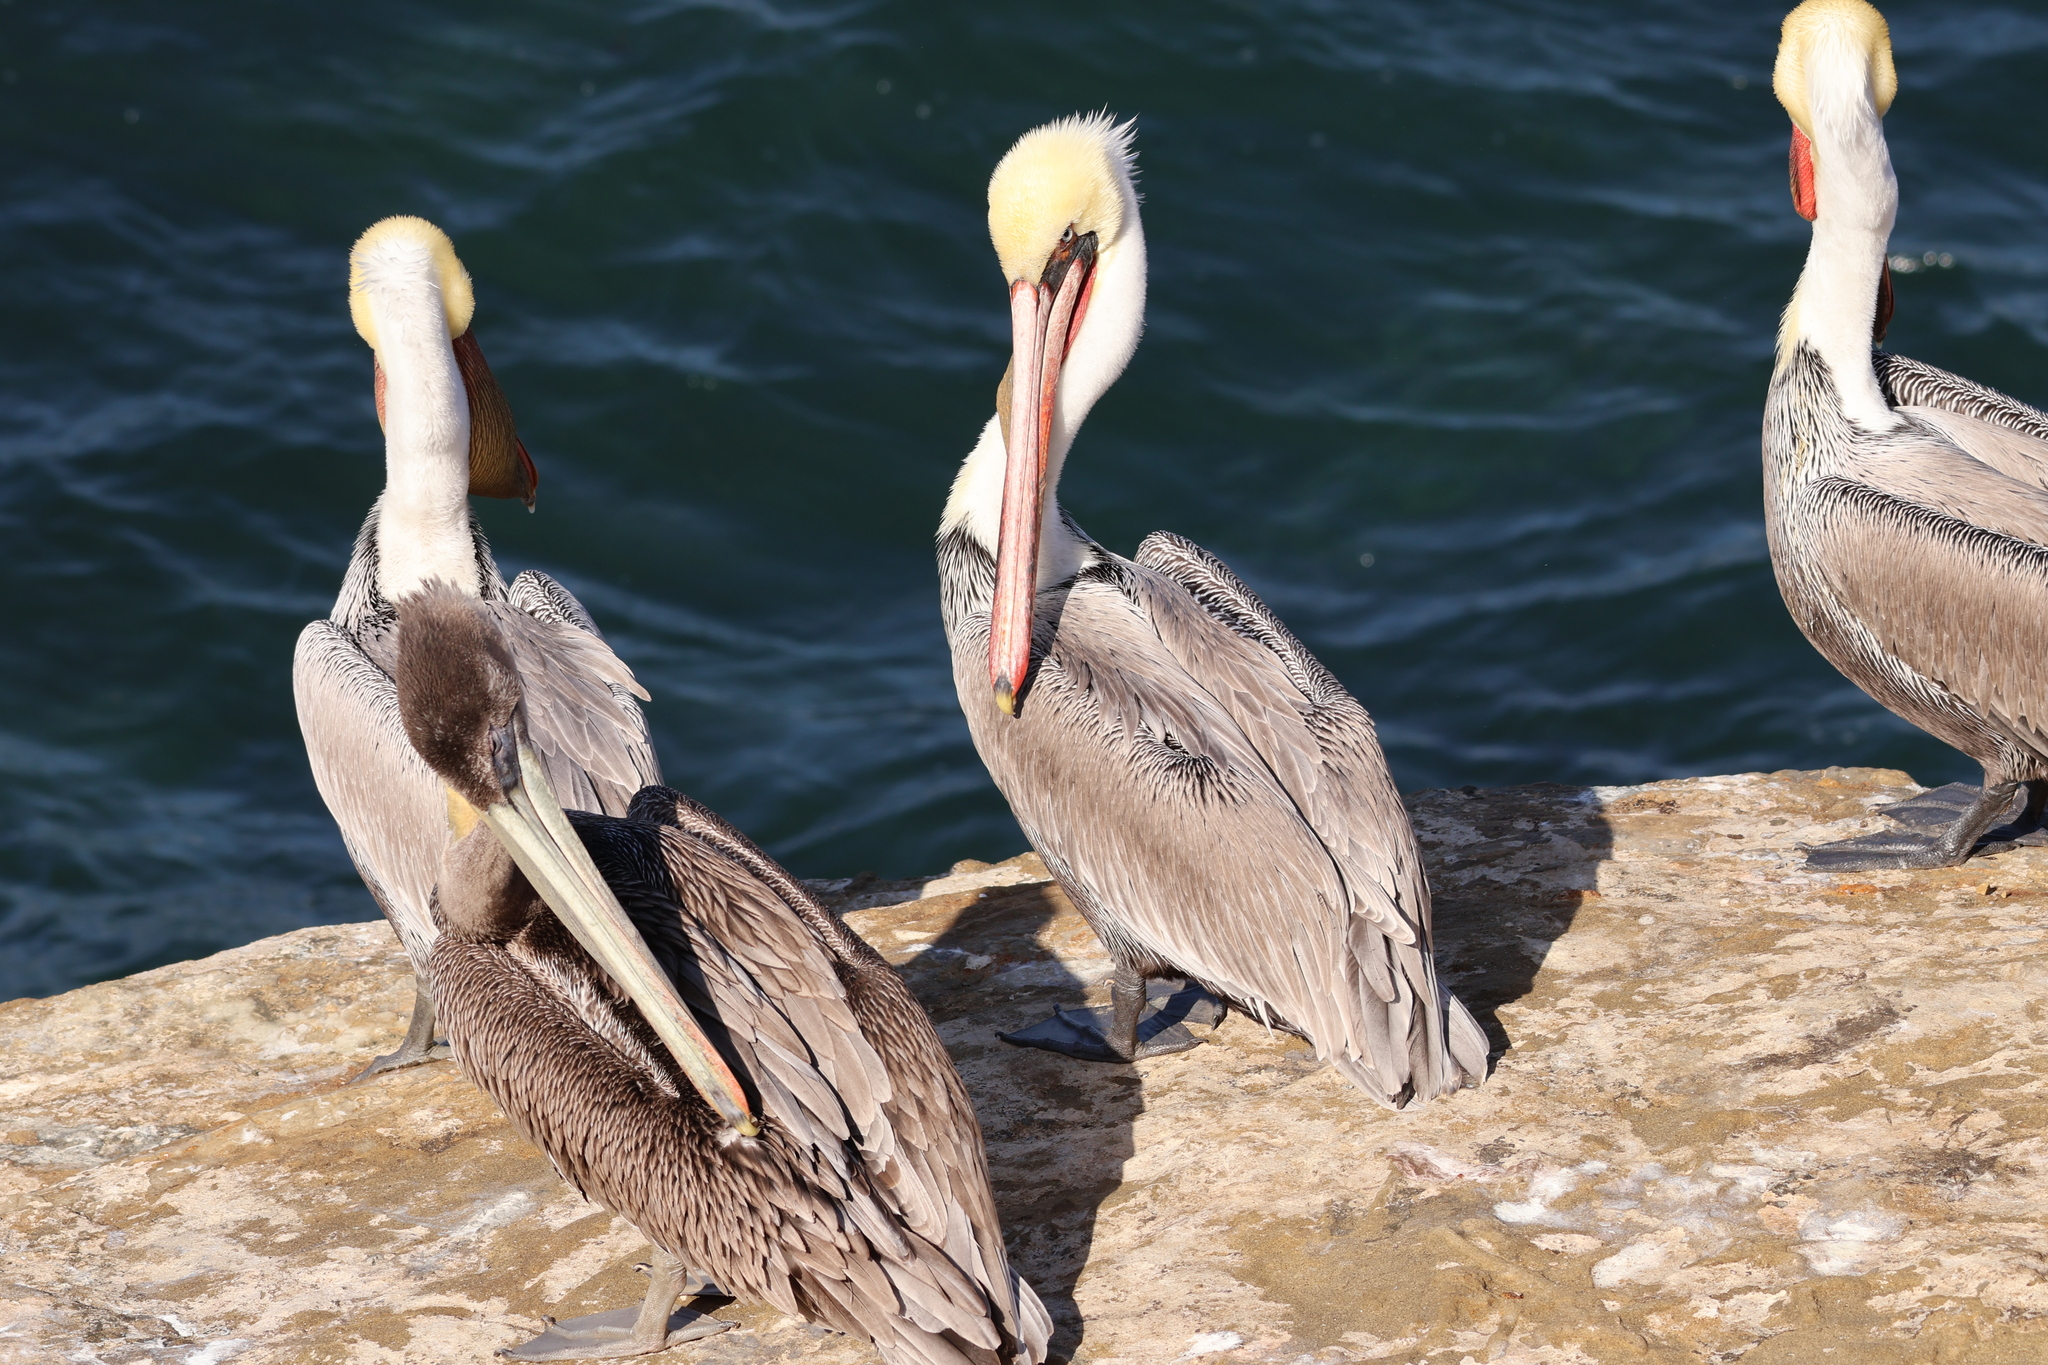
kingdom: Animalia
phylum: Chordata
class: Aves
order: Pelecaniformes
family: Pelecanidae
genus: Pelecanus
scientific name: Pelecanus occidentalis
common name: Brown pelican
